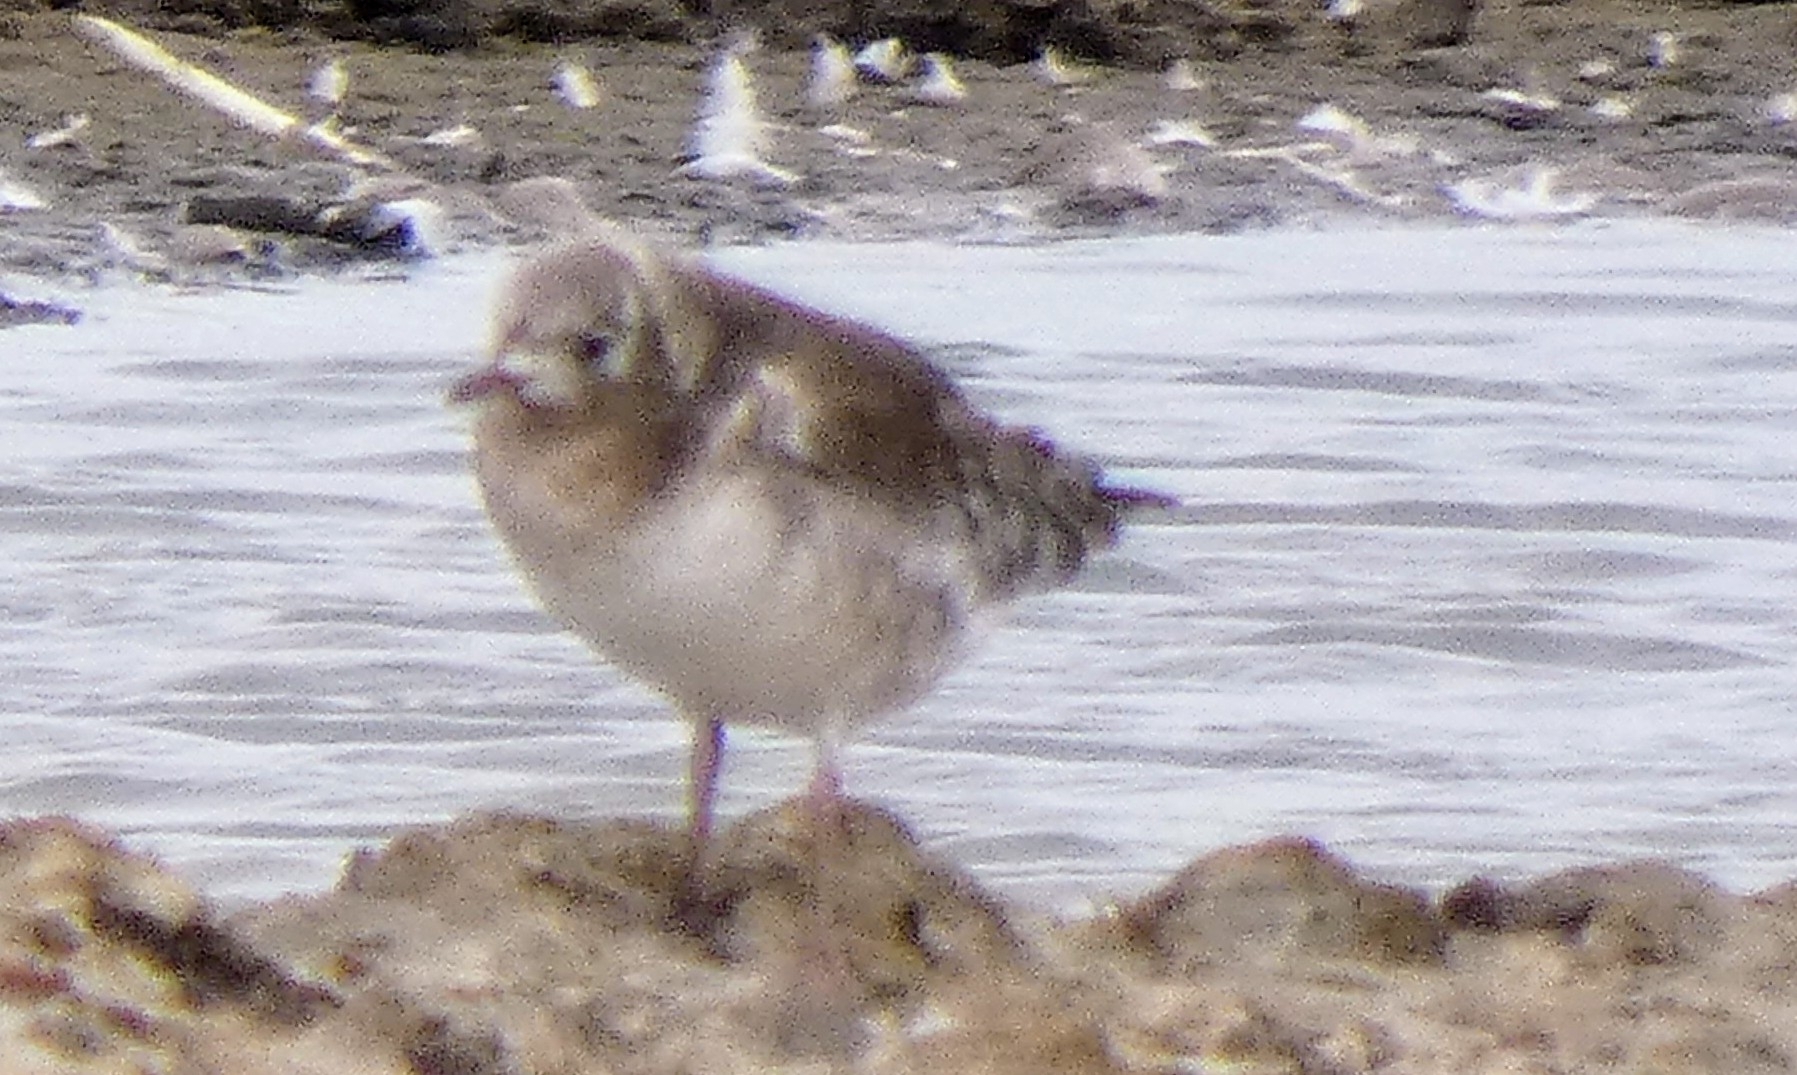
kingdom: Animalia
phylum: Chordata
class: Aves
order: Charadriiformes
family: Laridae
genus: Chroicocephalus
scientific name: Chroicocephalus ridibundus
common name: Black-headed gull
